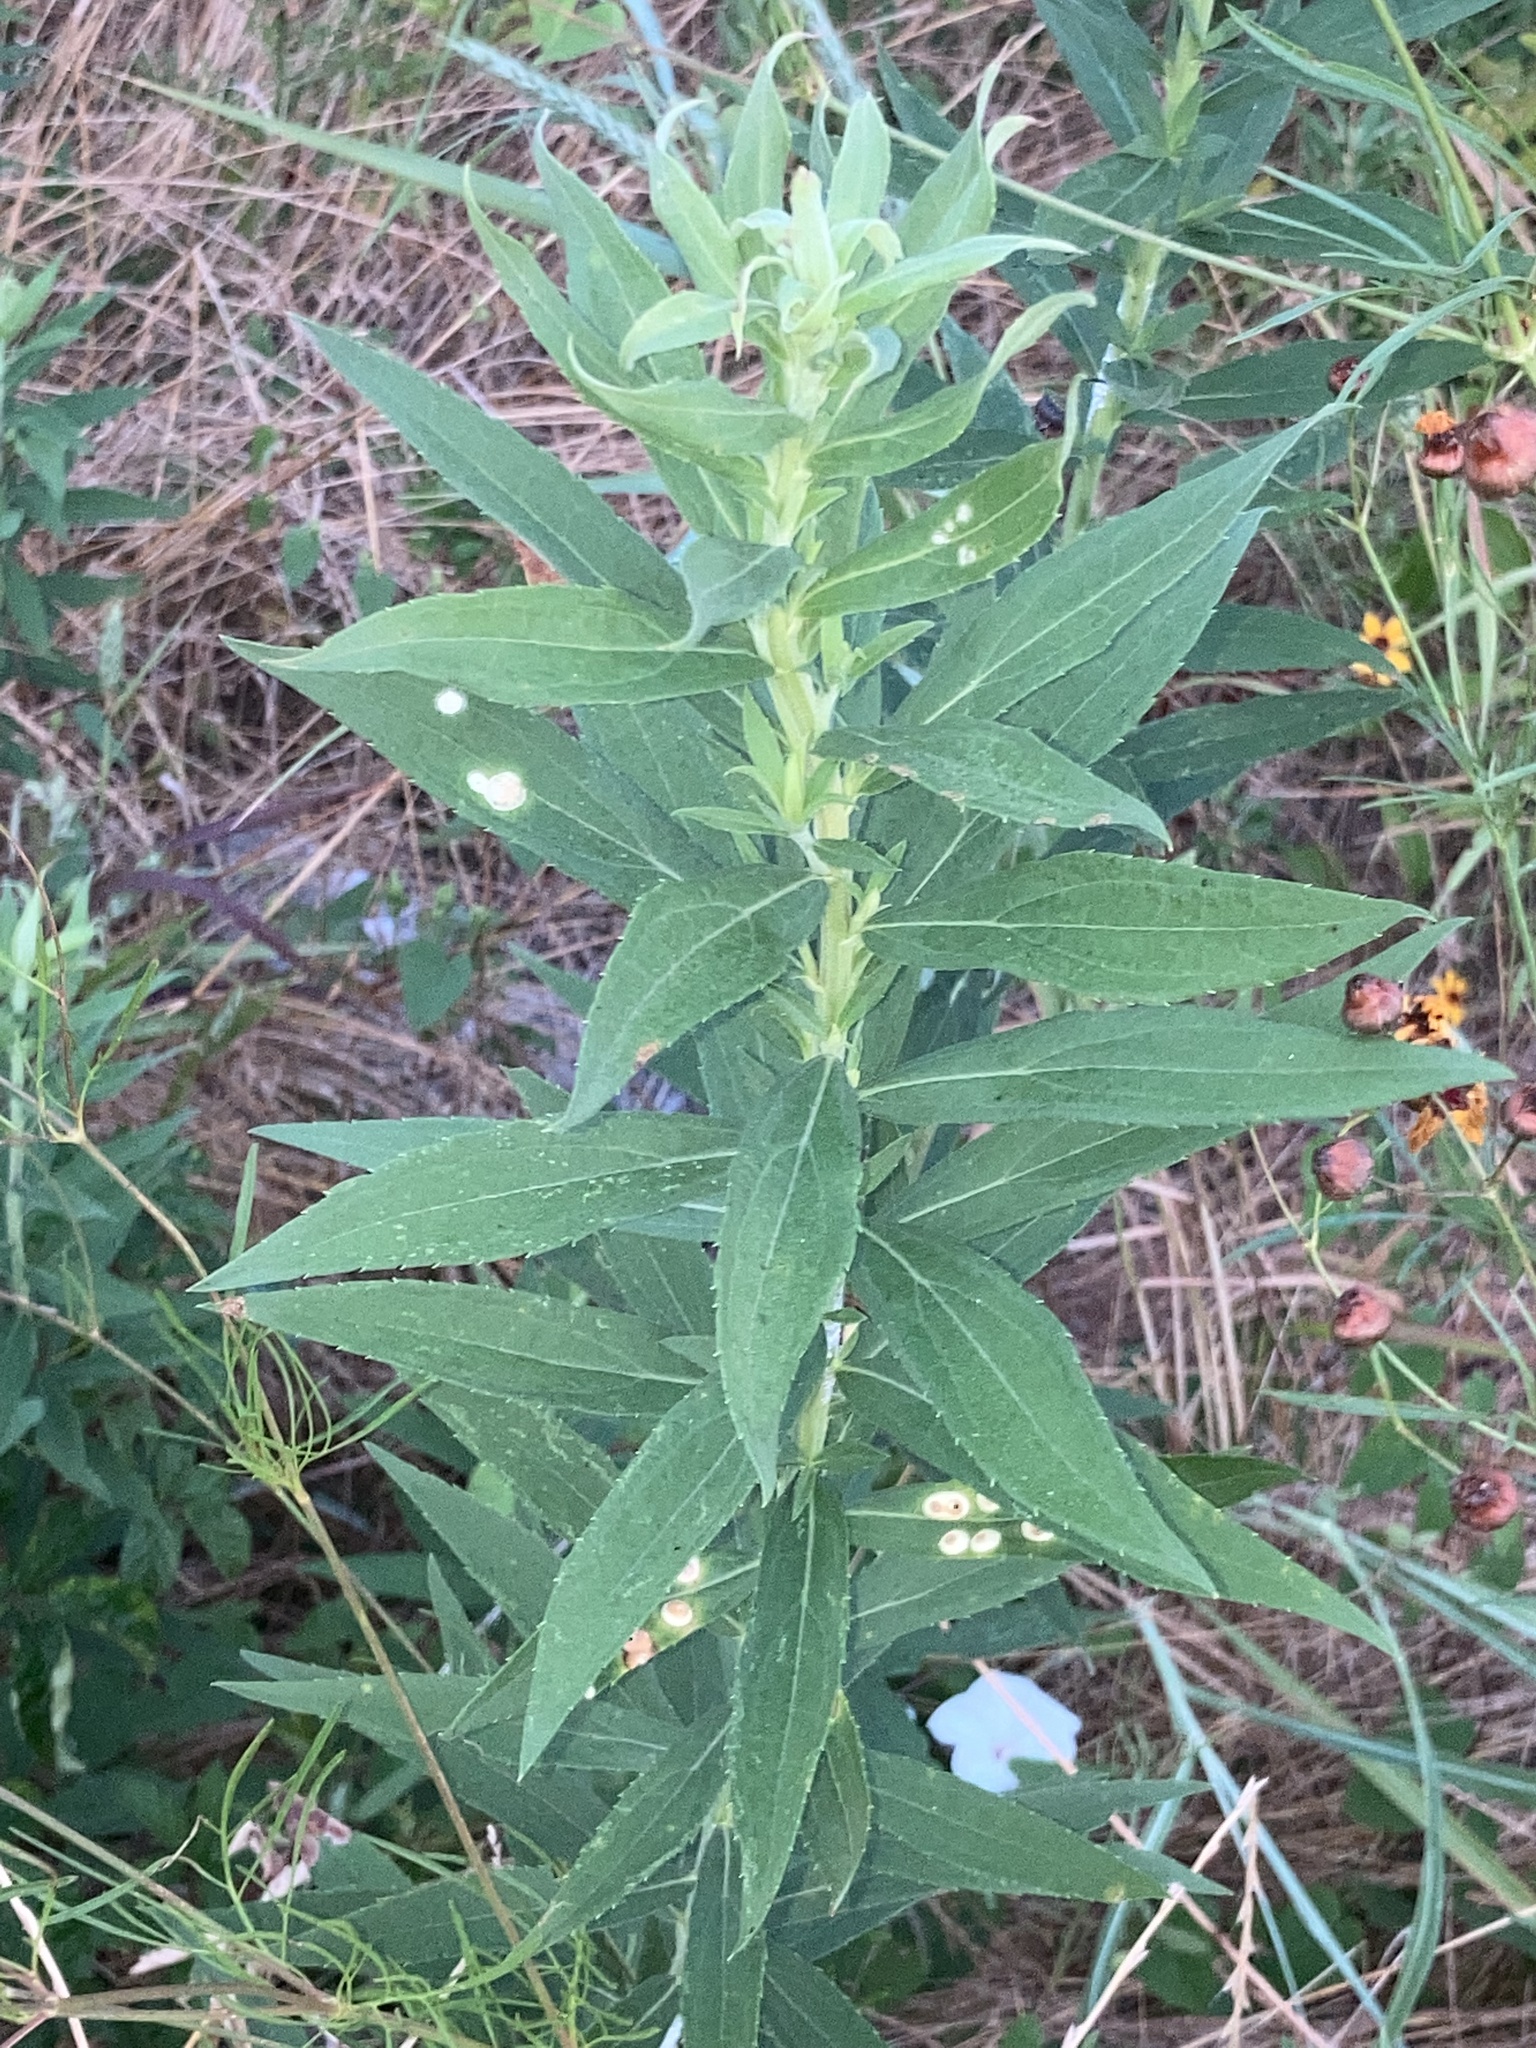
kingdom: Animalia
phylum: Arthropoda
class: Insecta
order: Diptera
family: Cecidomyiidae
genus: Asteromyia
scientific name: Asteromyia carbonifera
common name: Carbonifera goldenrod gall midge
